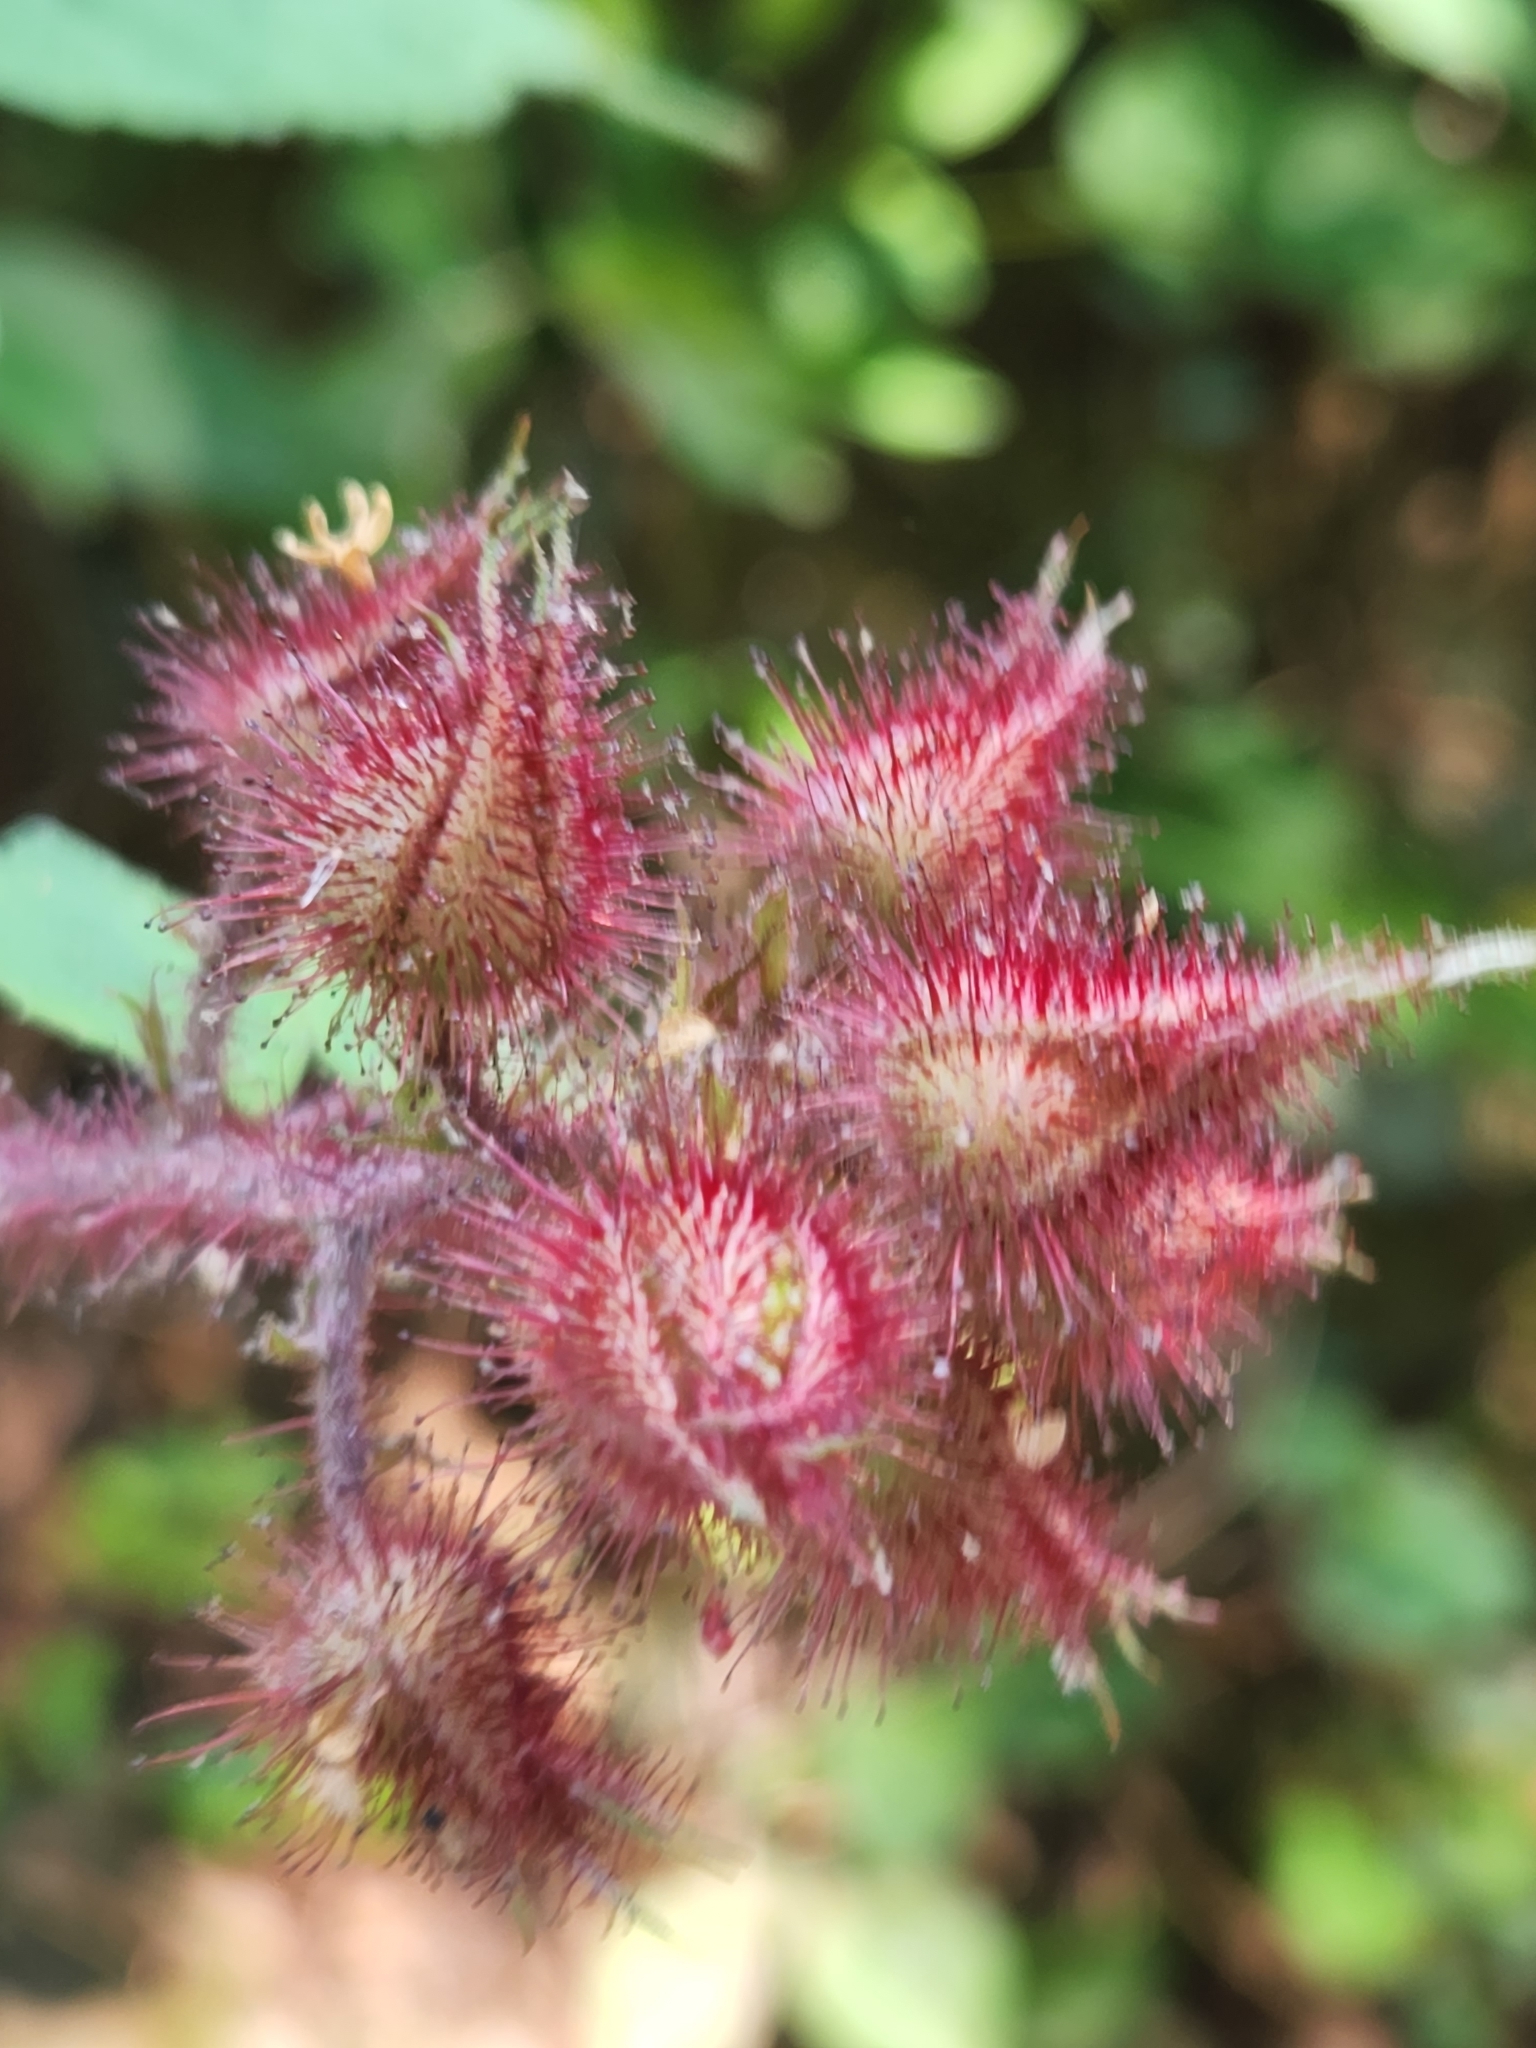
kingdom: Plantae
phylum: Tracheophyta
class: Magnoliopsida
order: Rosales
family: Rosaceae
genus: Rubus
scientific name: Rubus phoenicolasius
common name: Japanese wineberry
